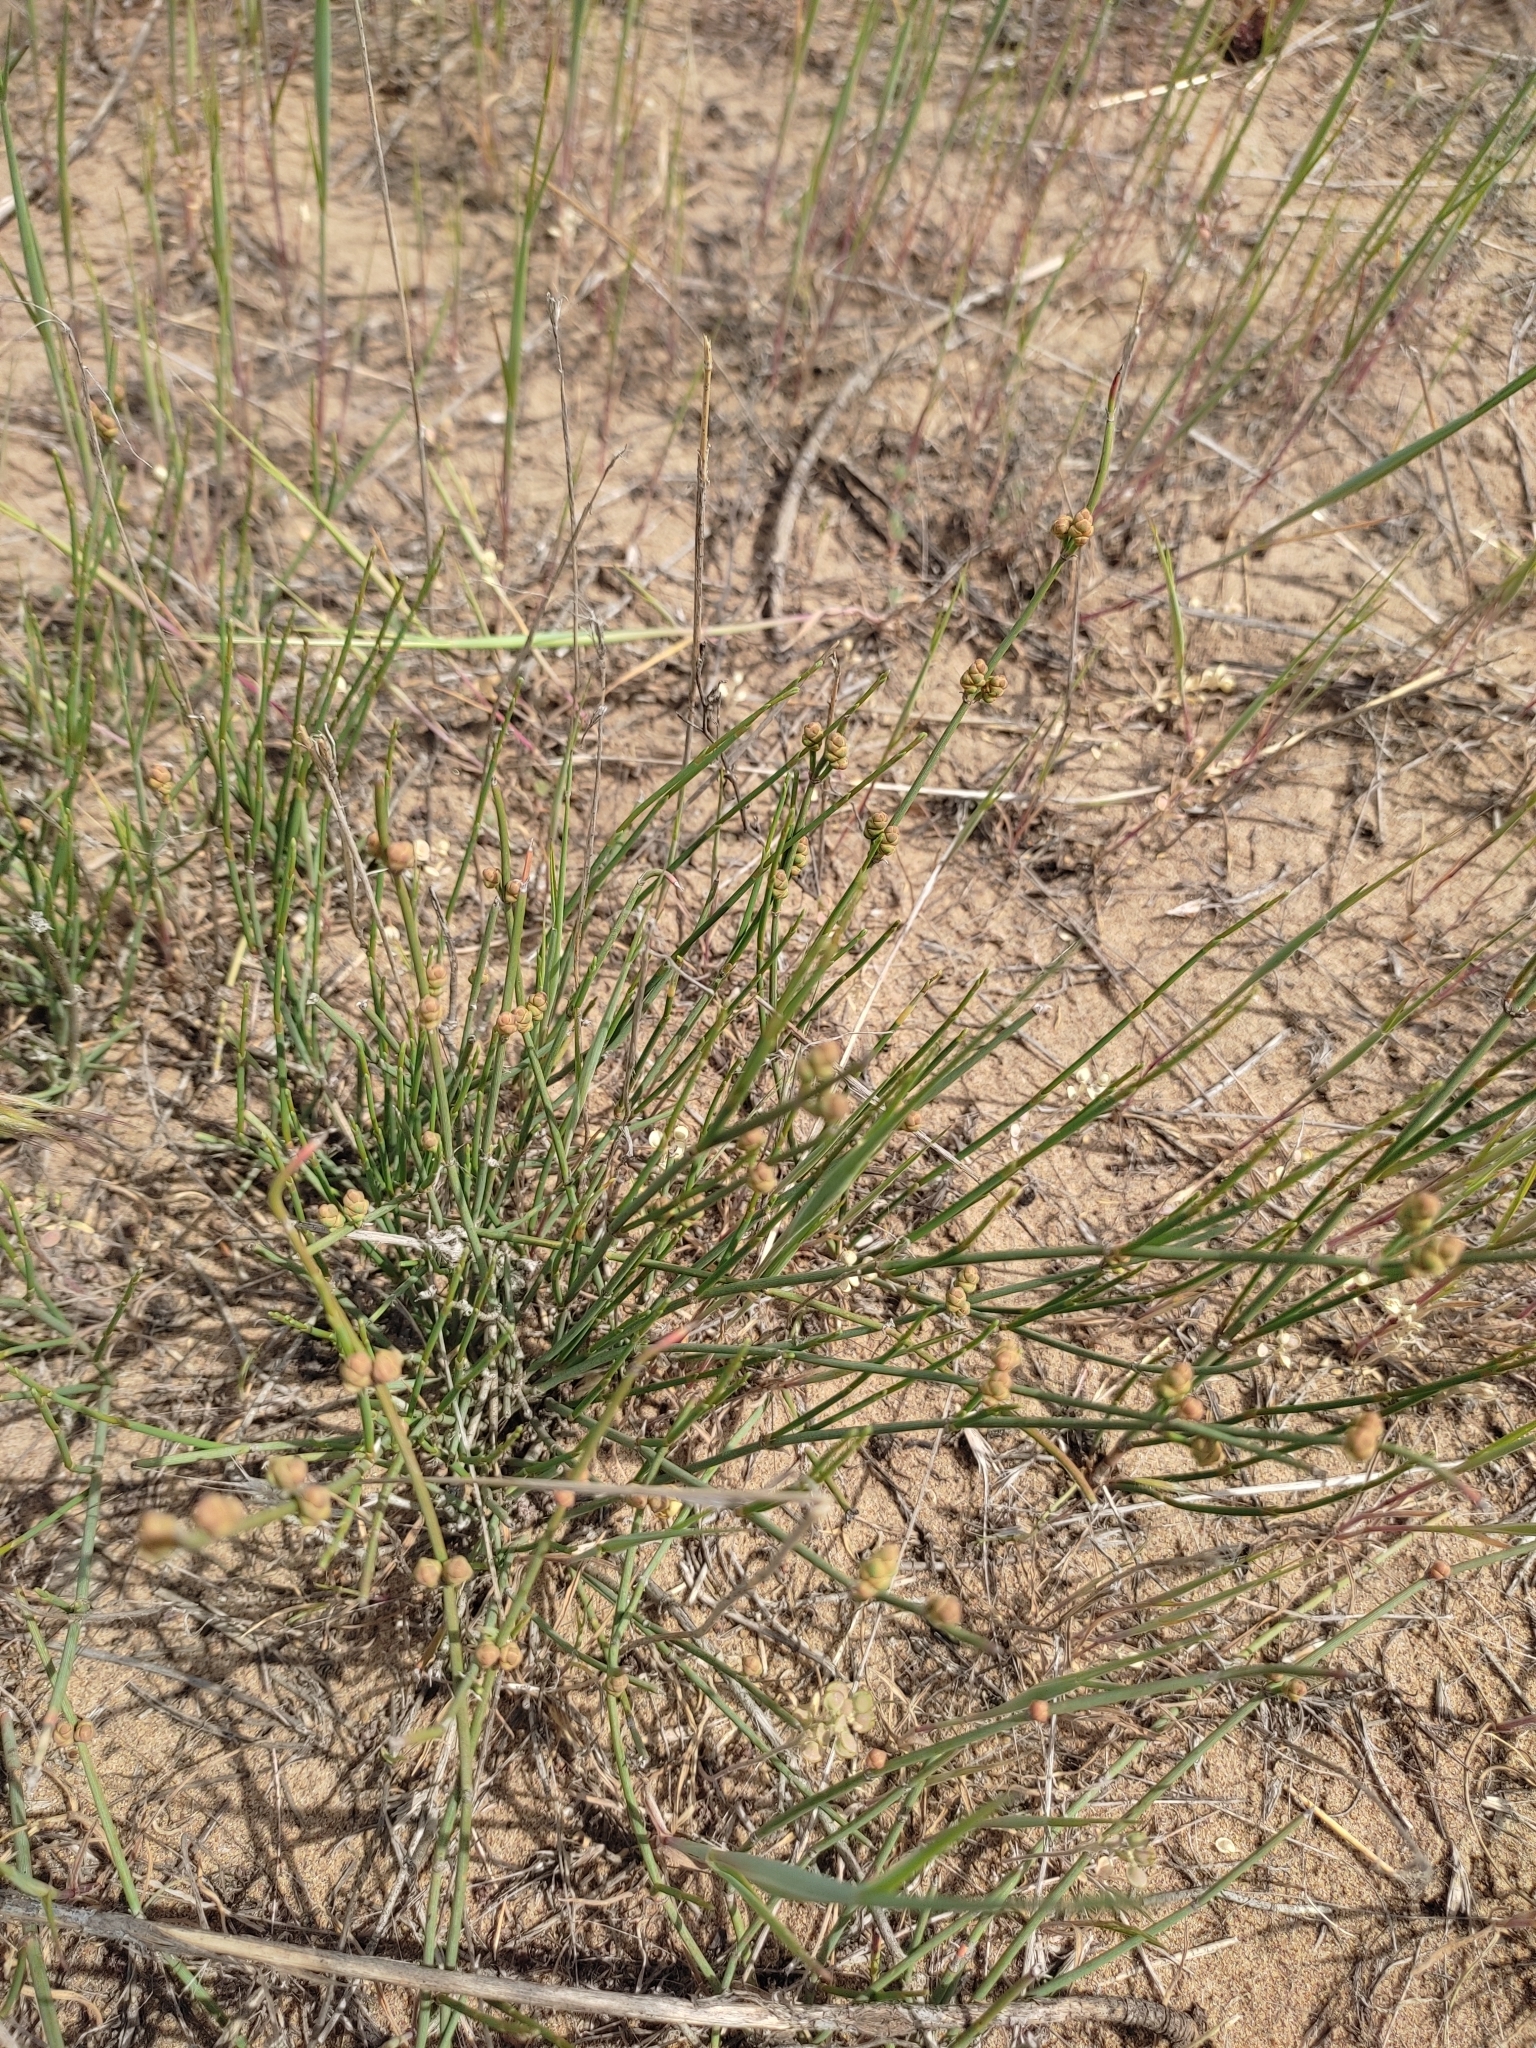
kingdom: Plantae
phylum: Tracheophyta
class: Gnetopsida
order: Ephedrales
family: Ephedraceae
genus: Ephedra
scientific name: Ephedra distachya
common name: Sea grape
